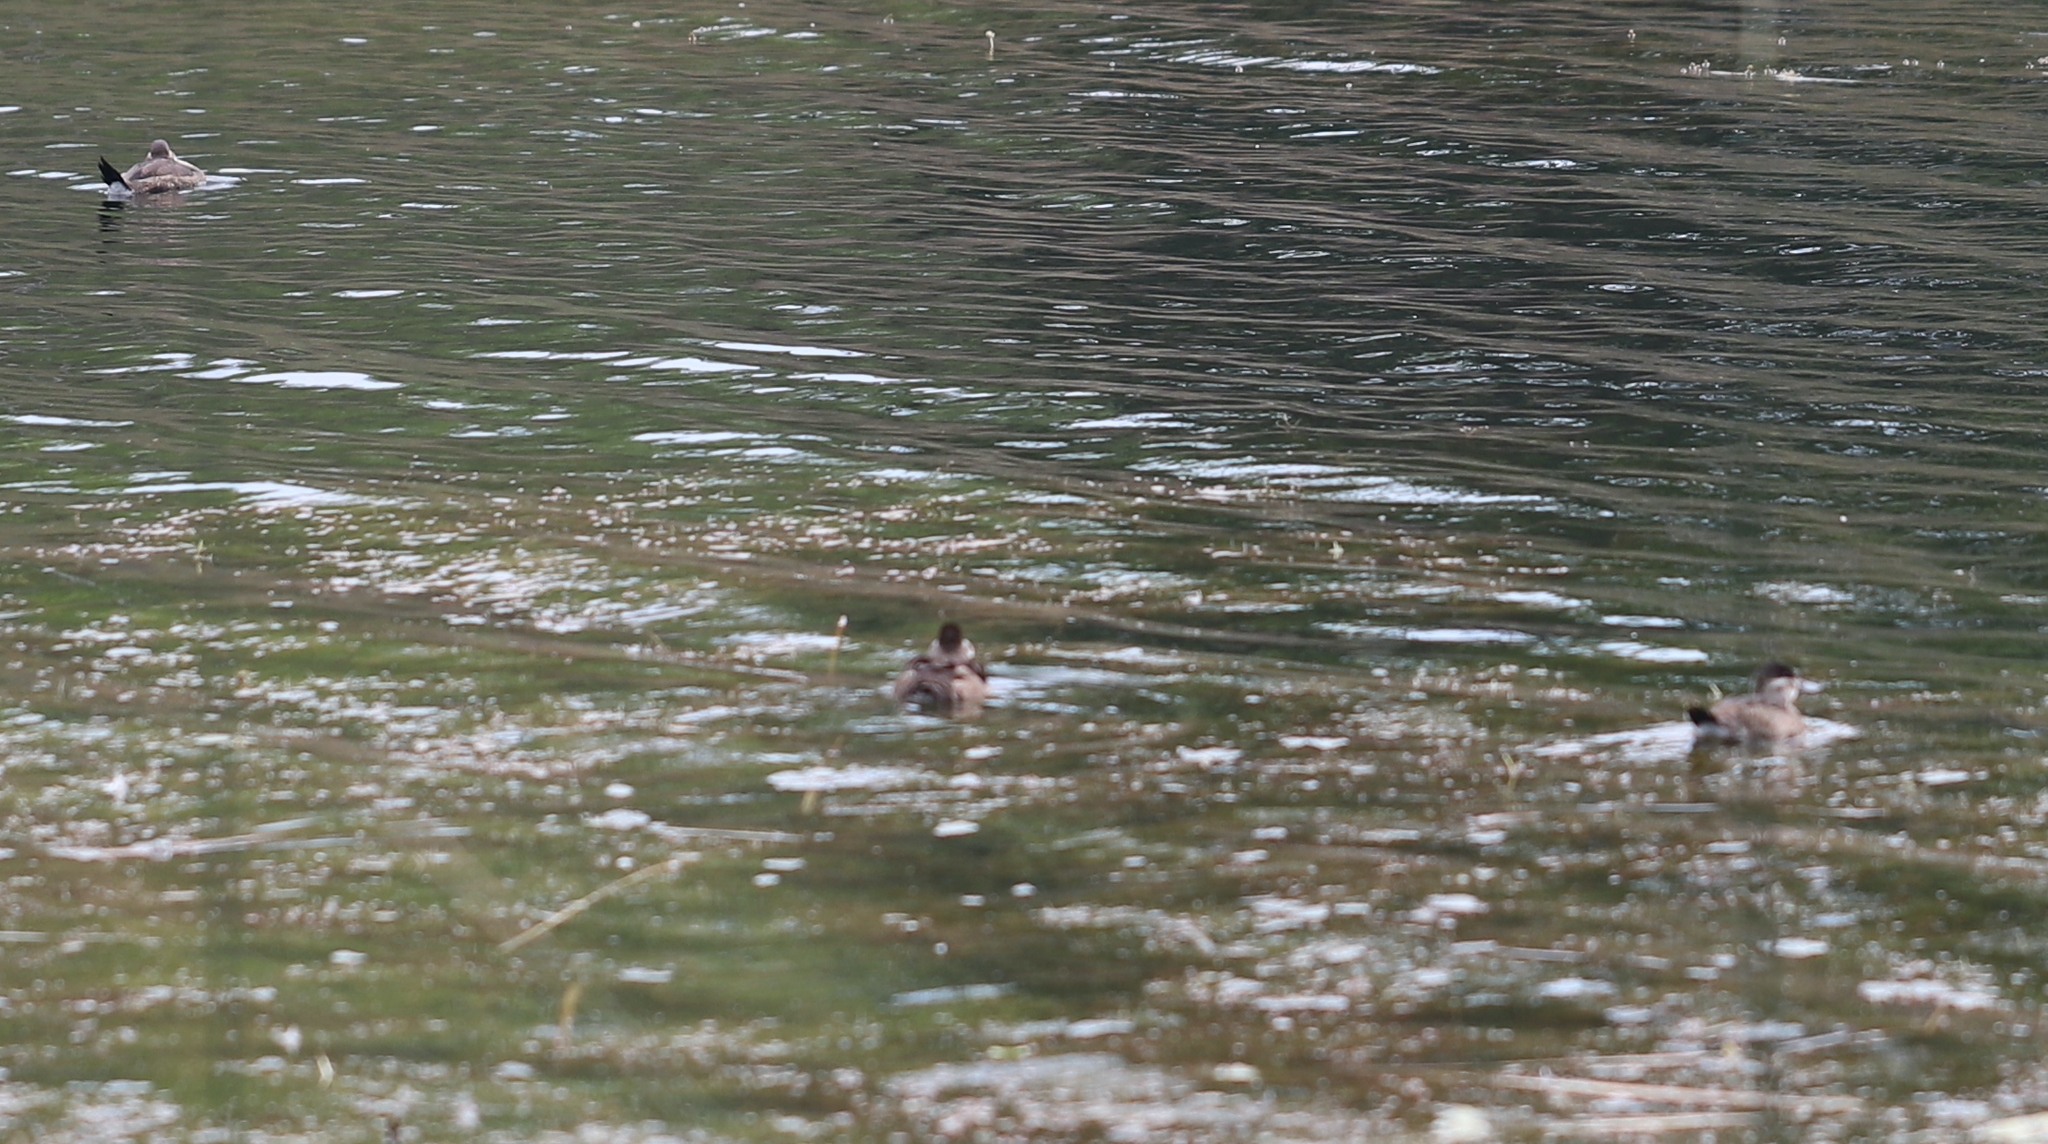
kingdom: Animalia
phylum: Chordata
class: Aves
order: Anseriformes
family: Anatidae
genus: Oxyura
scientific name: Oxyura jamaicensis
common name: Ruddy duck
